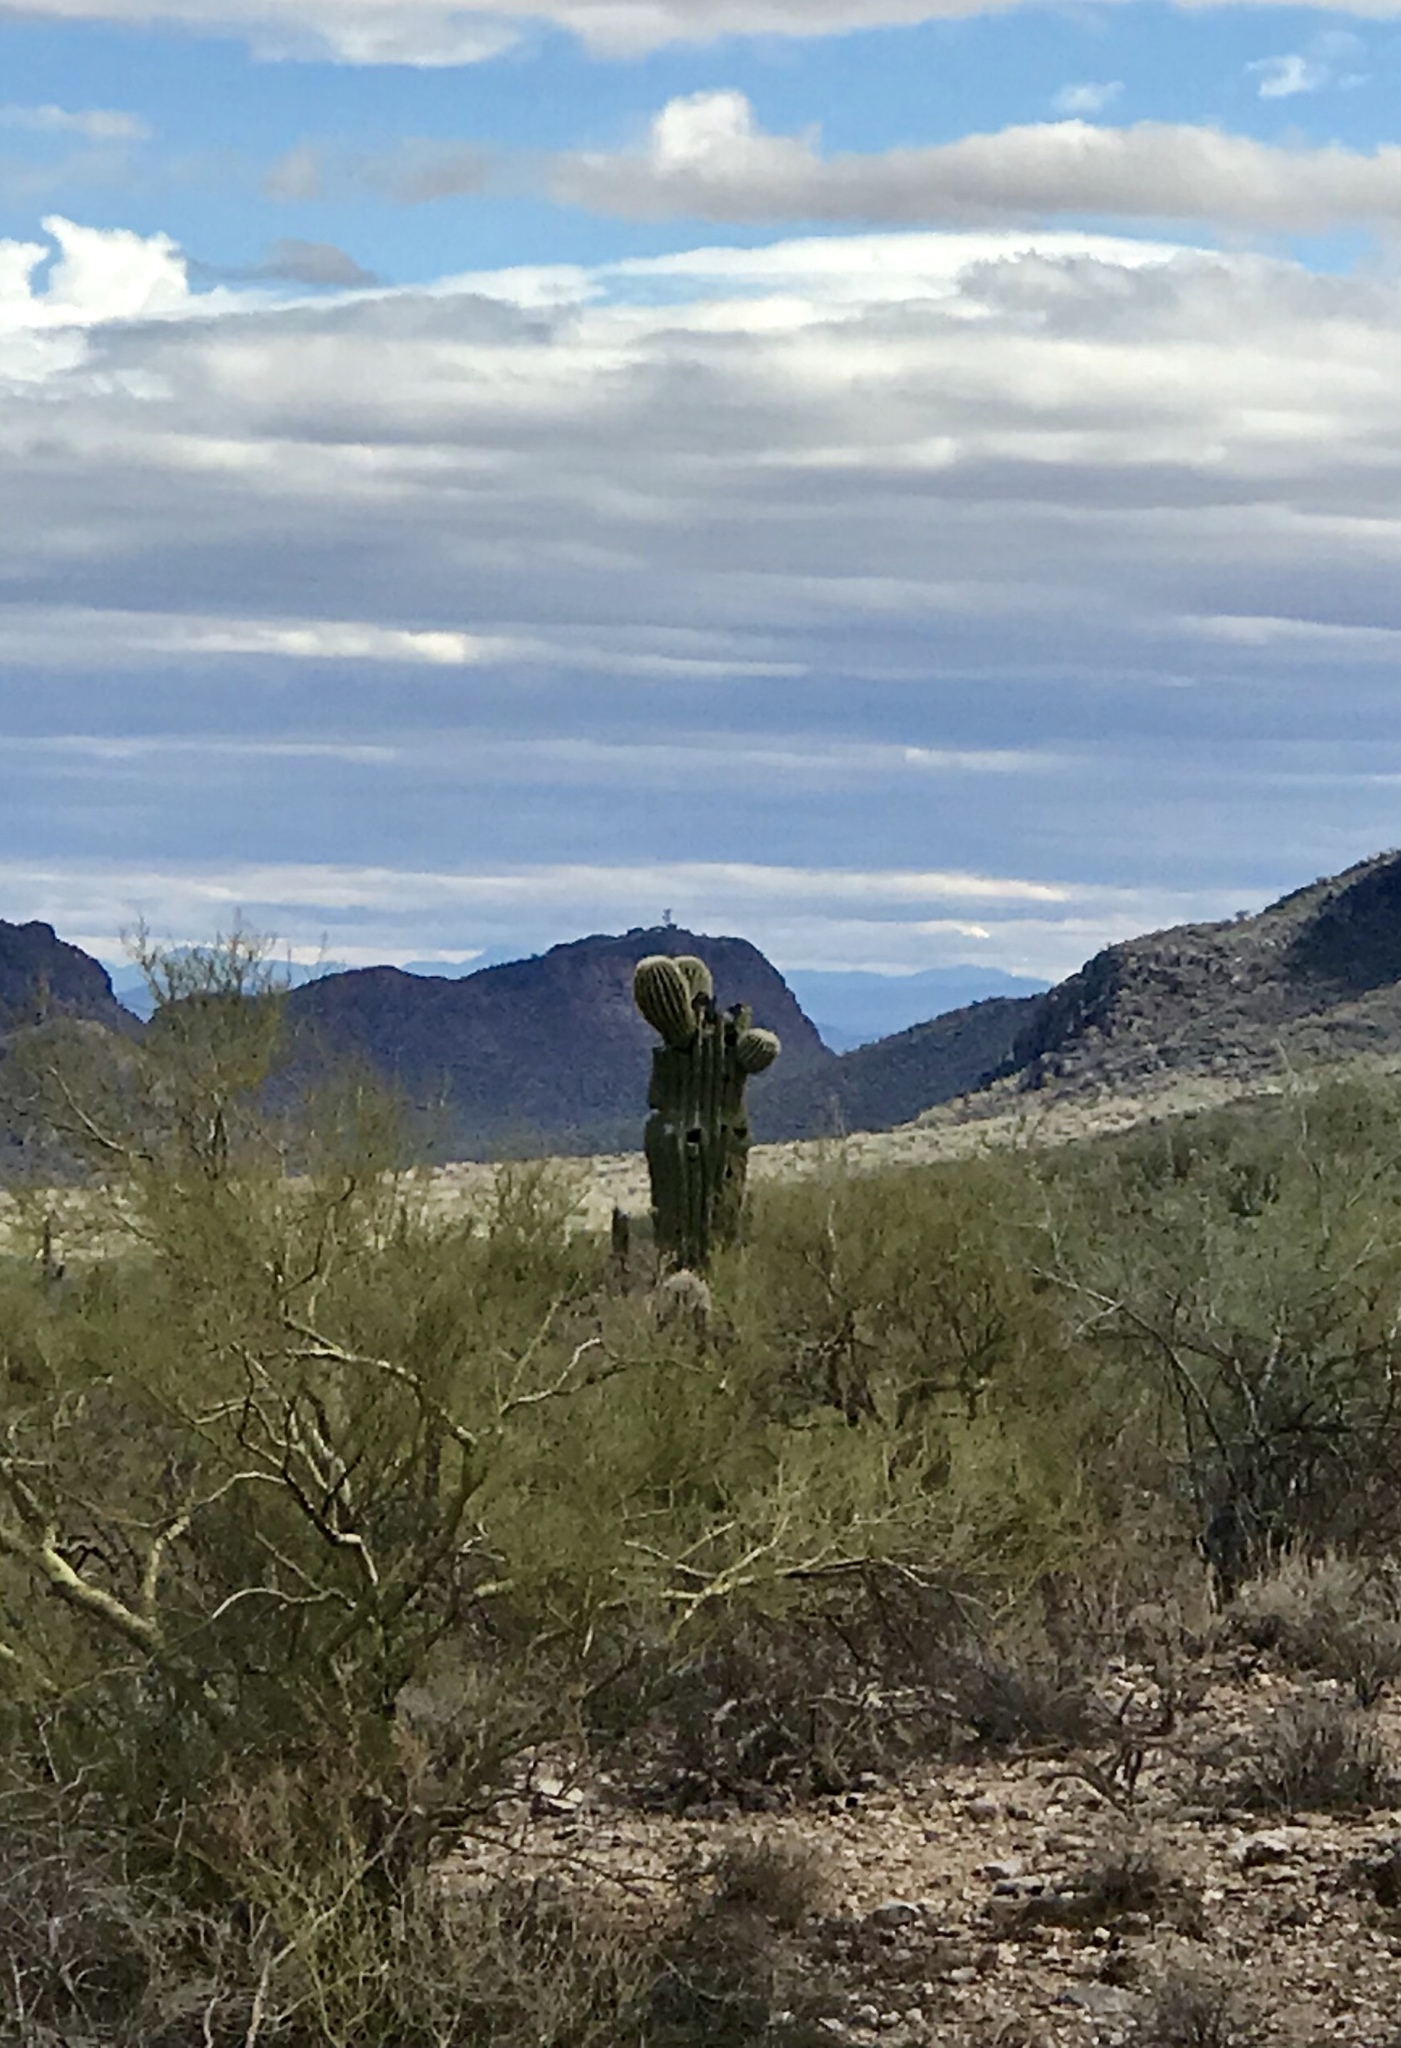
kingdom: Plantae
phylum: Tracheophyta
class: Magnoliopsida
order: Caryophyllales
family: Cactaceae
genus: Carnegiea
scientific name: Carnegiea gigantea
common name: Saguaro
